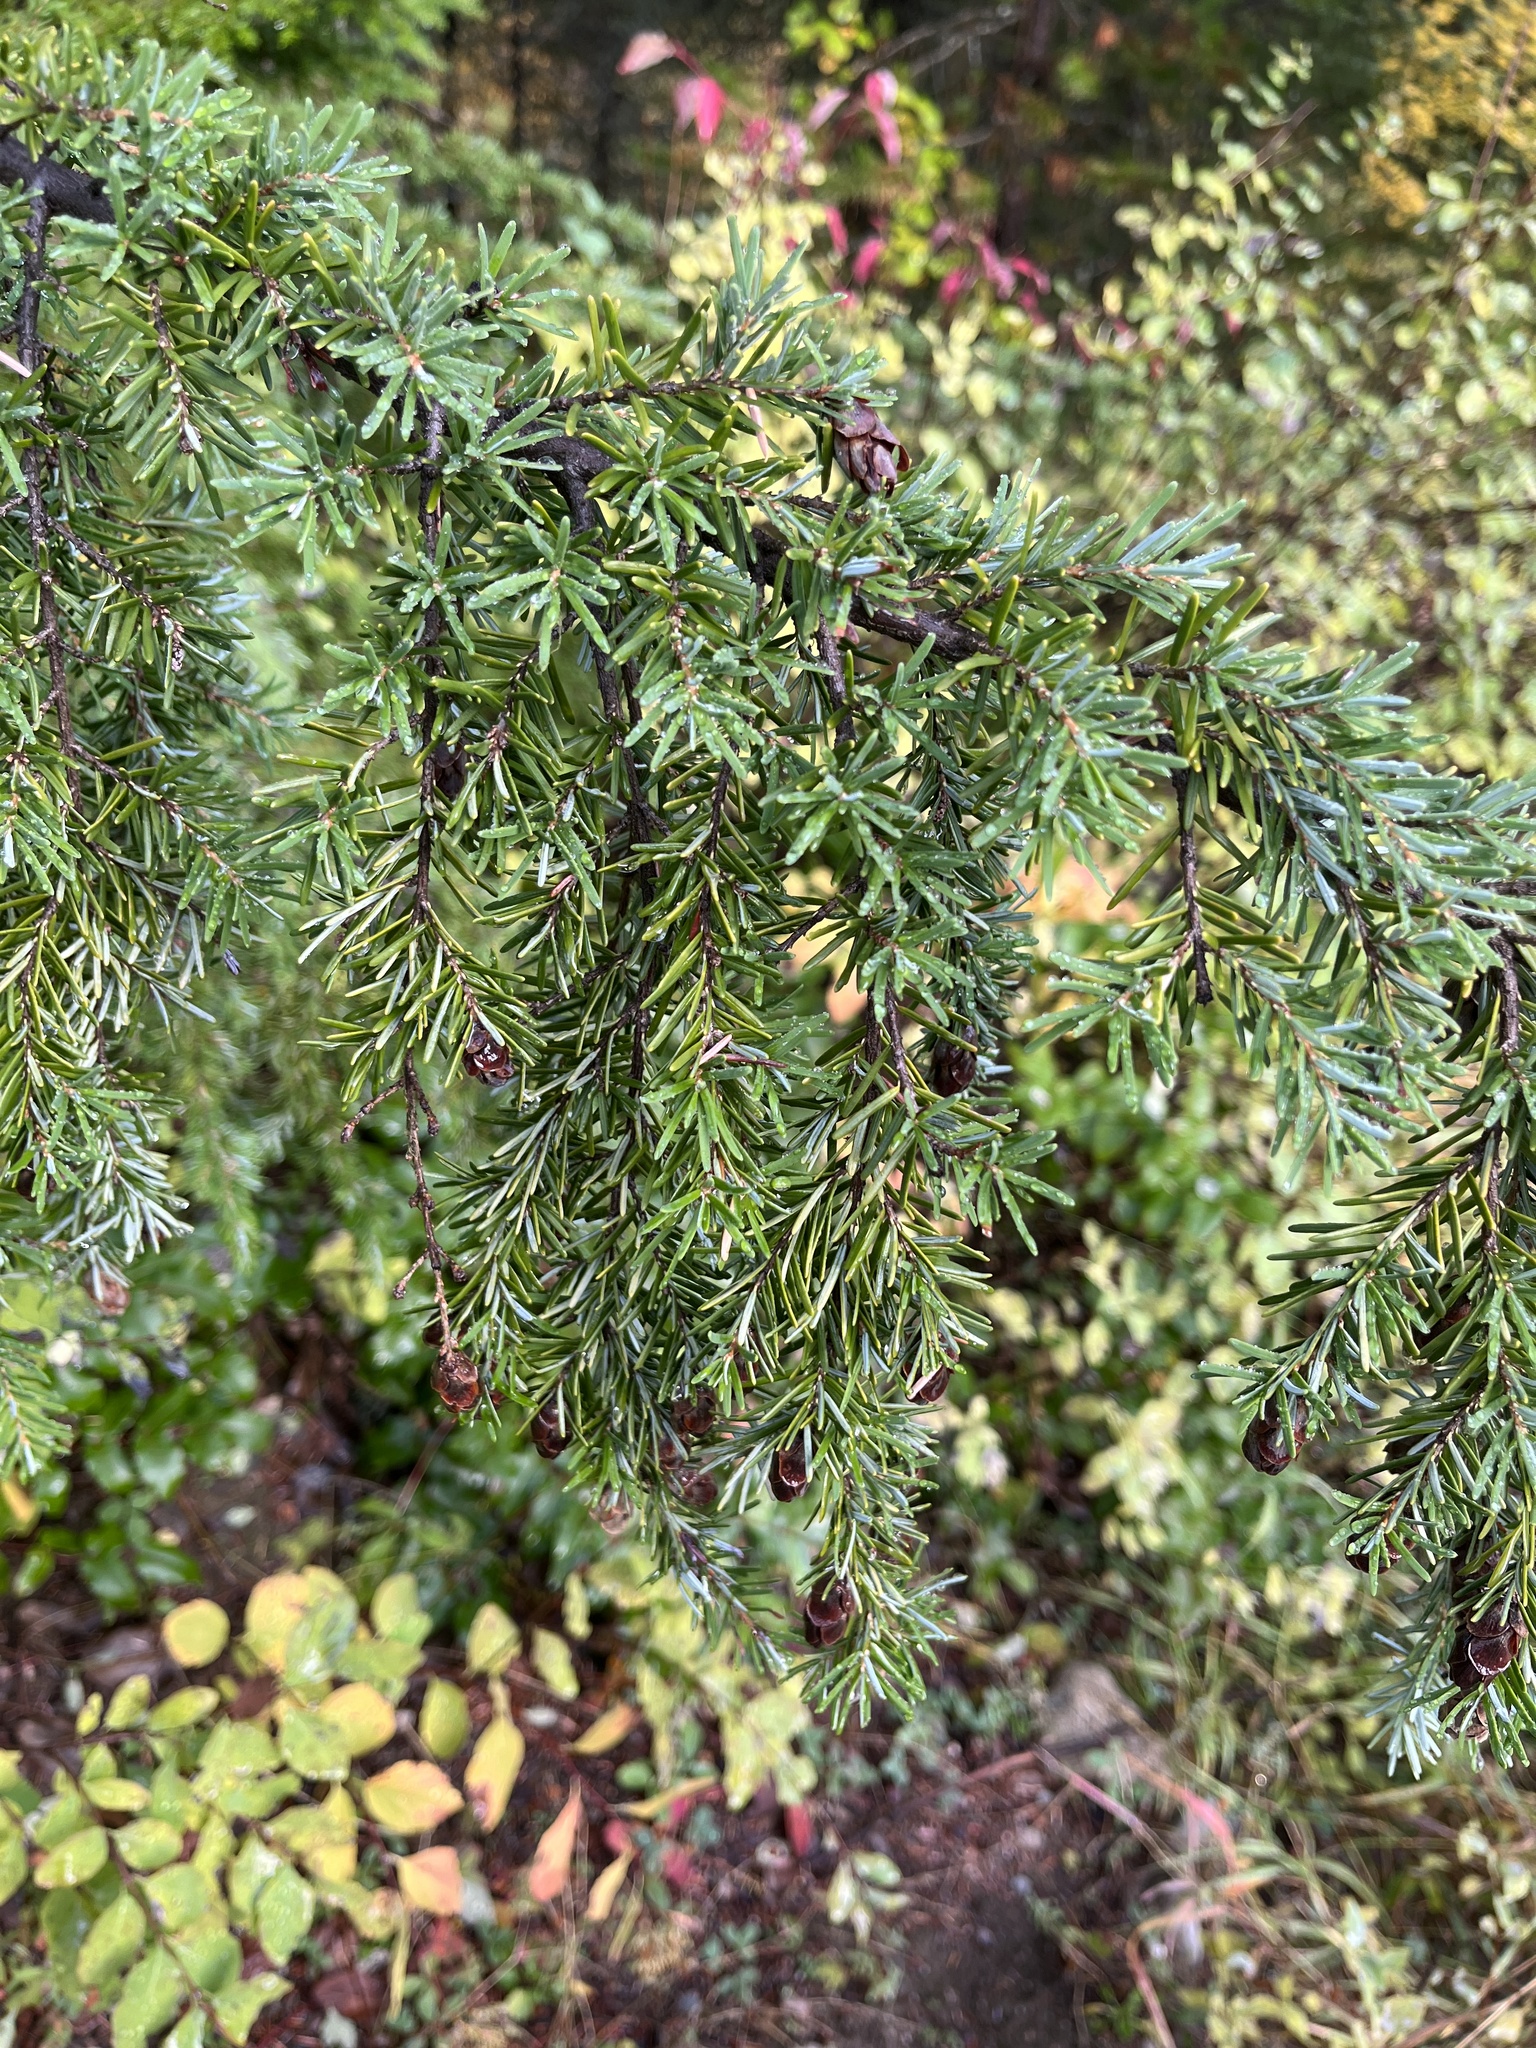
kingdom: Plantae
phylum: Tracheophyta
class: Pinopsida
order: Pinales
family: Pinaceae
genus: Tsuga
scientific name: Tsuga heterophylla
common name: Western hemlock
